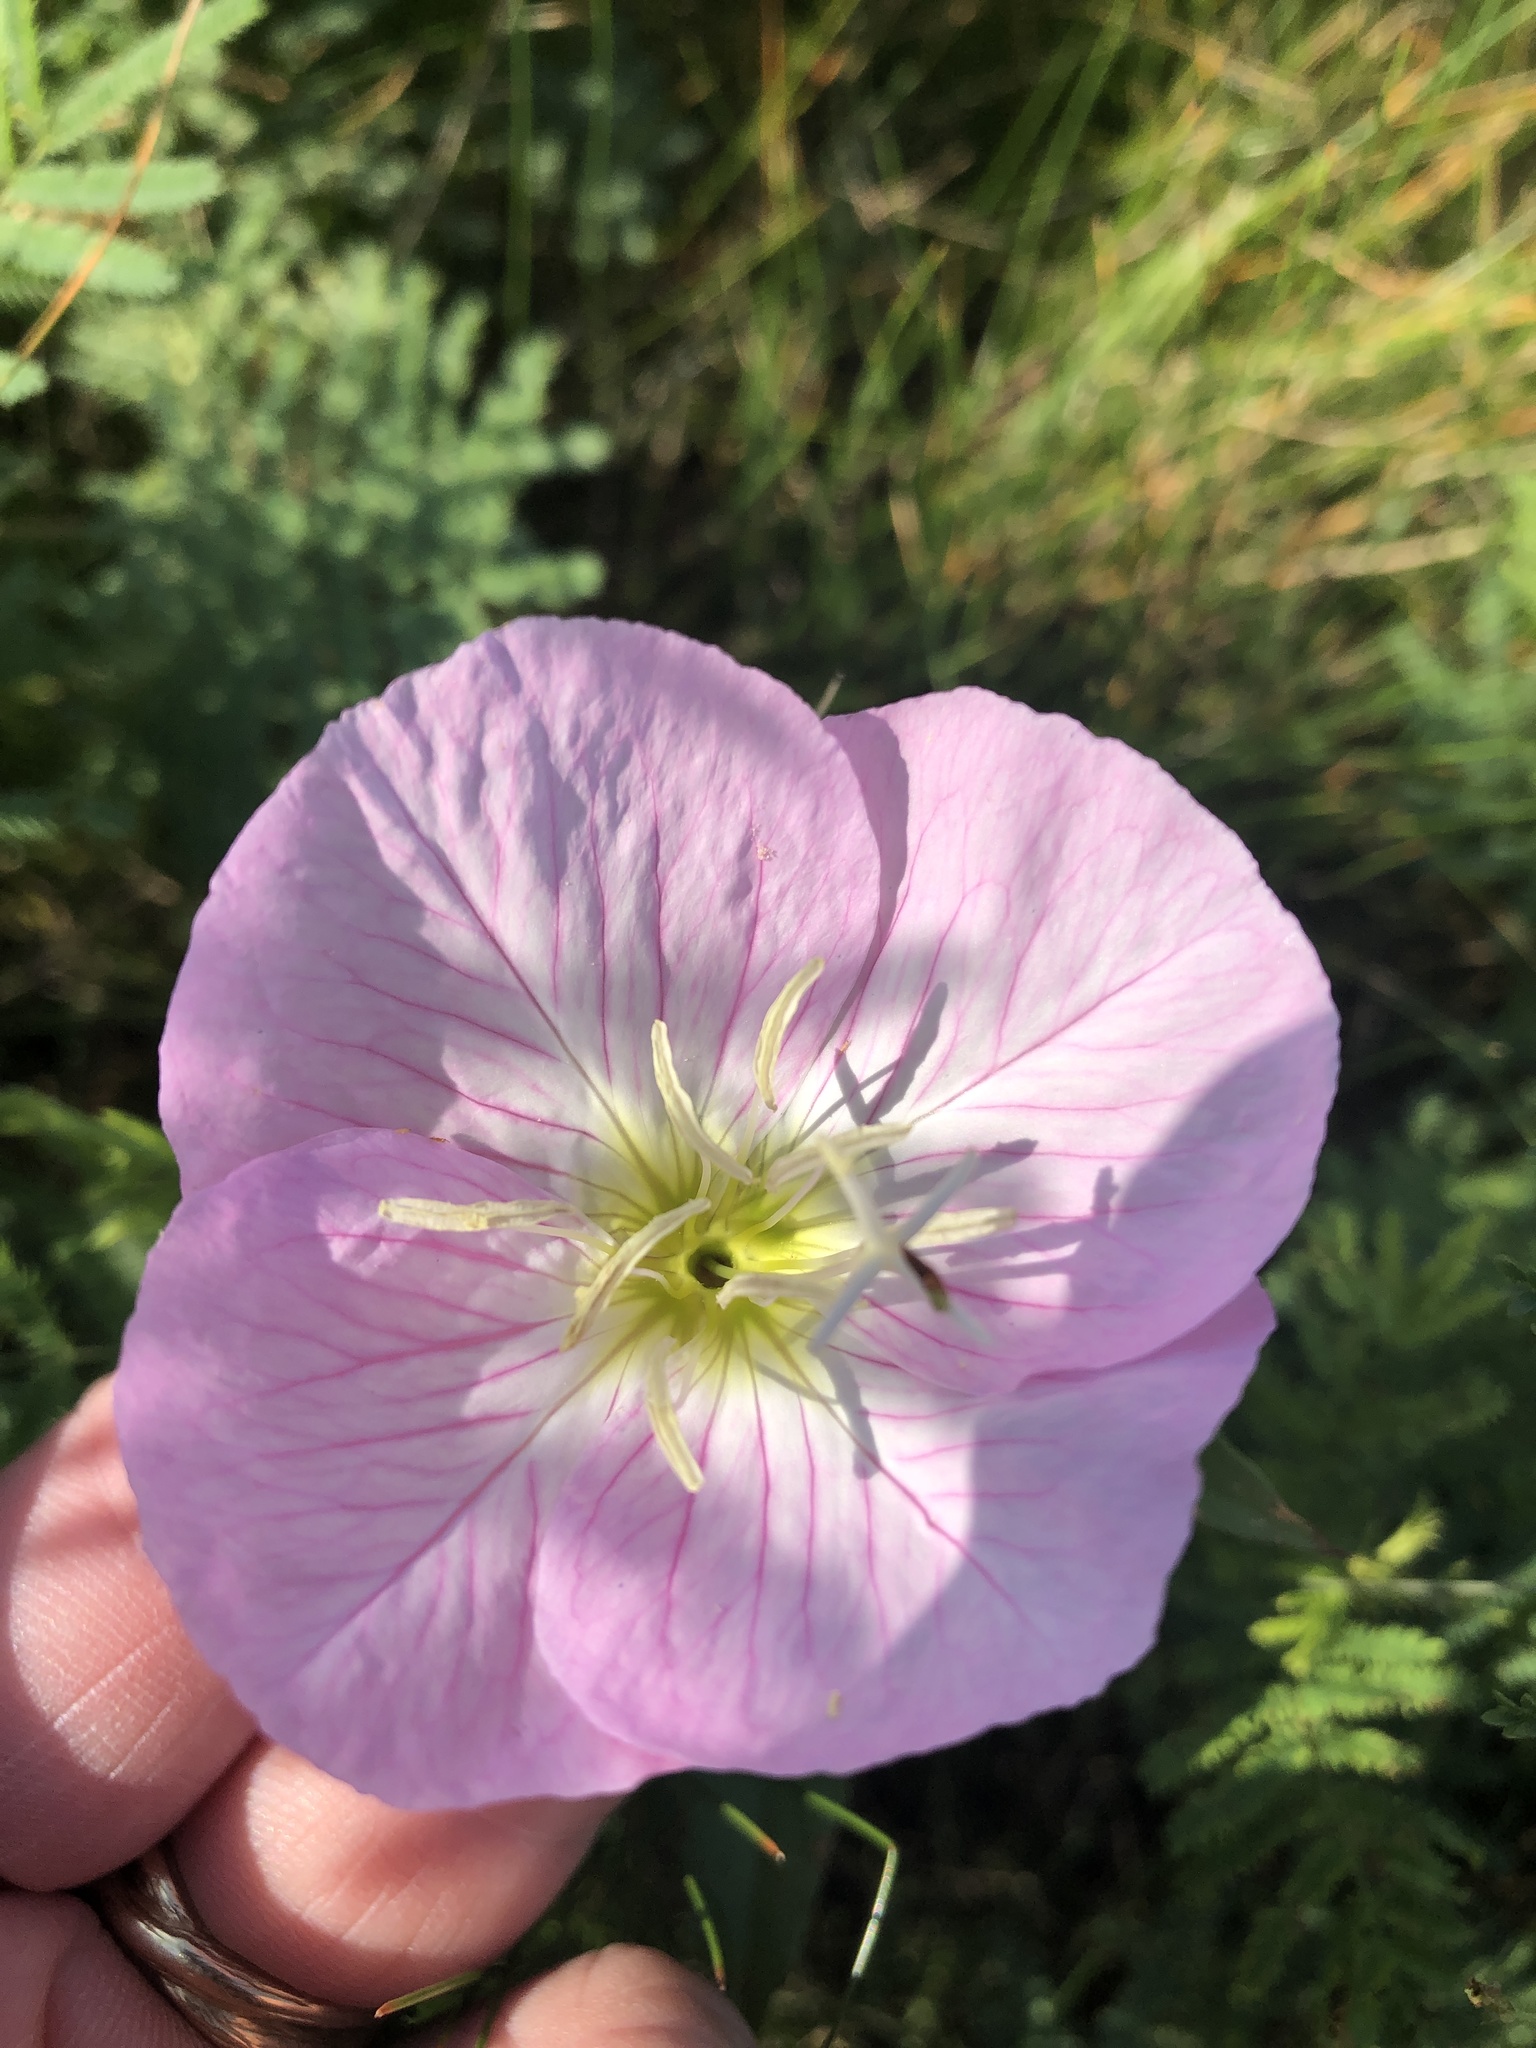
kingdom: Plantae
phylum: Tracheophyta
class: Magnoliopsida
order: Myrtales
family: Onagraceae
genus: Oenothera
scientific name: Oenothera speciosa
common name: White evening-primrose
